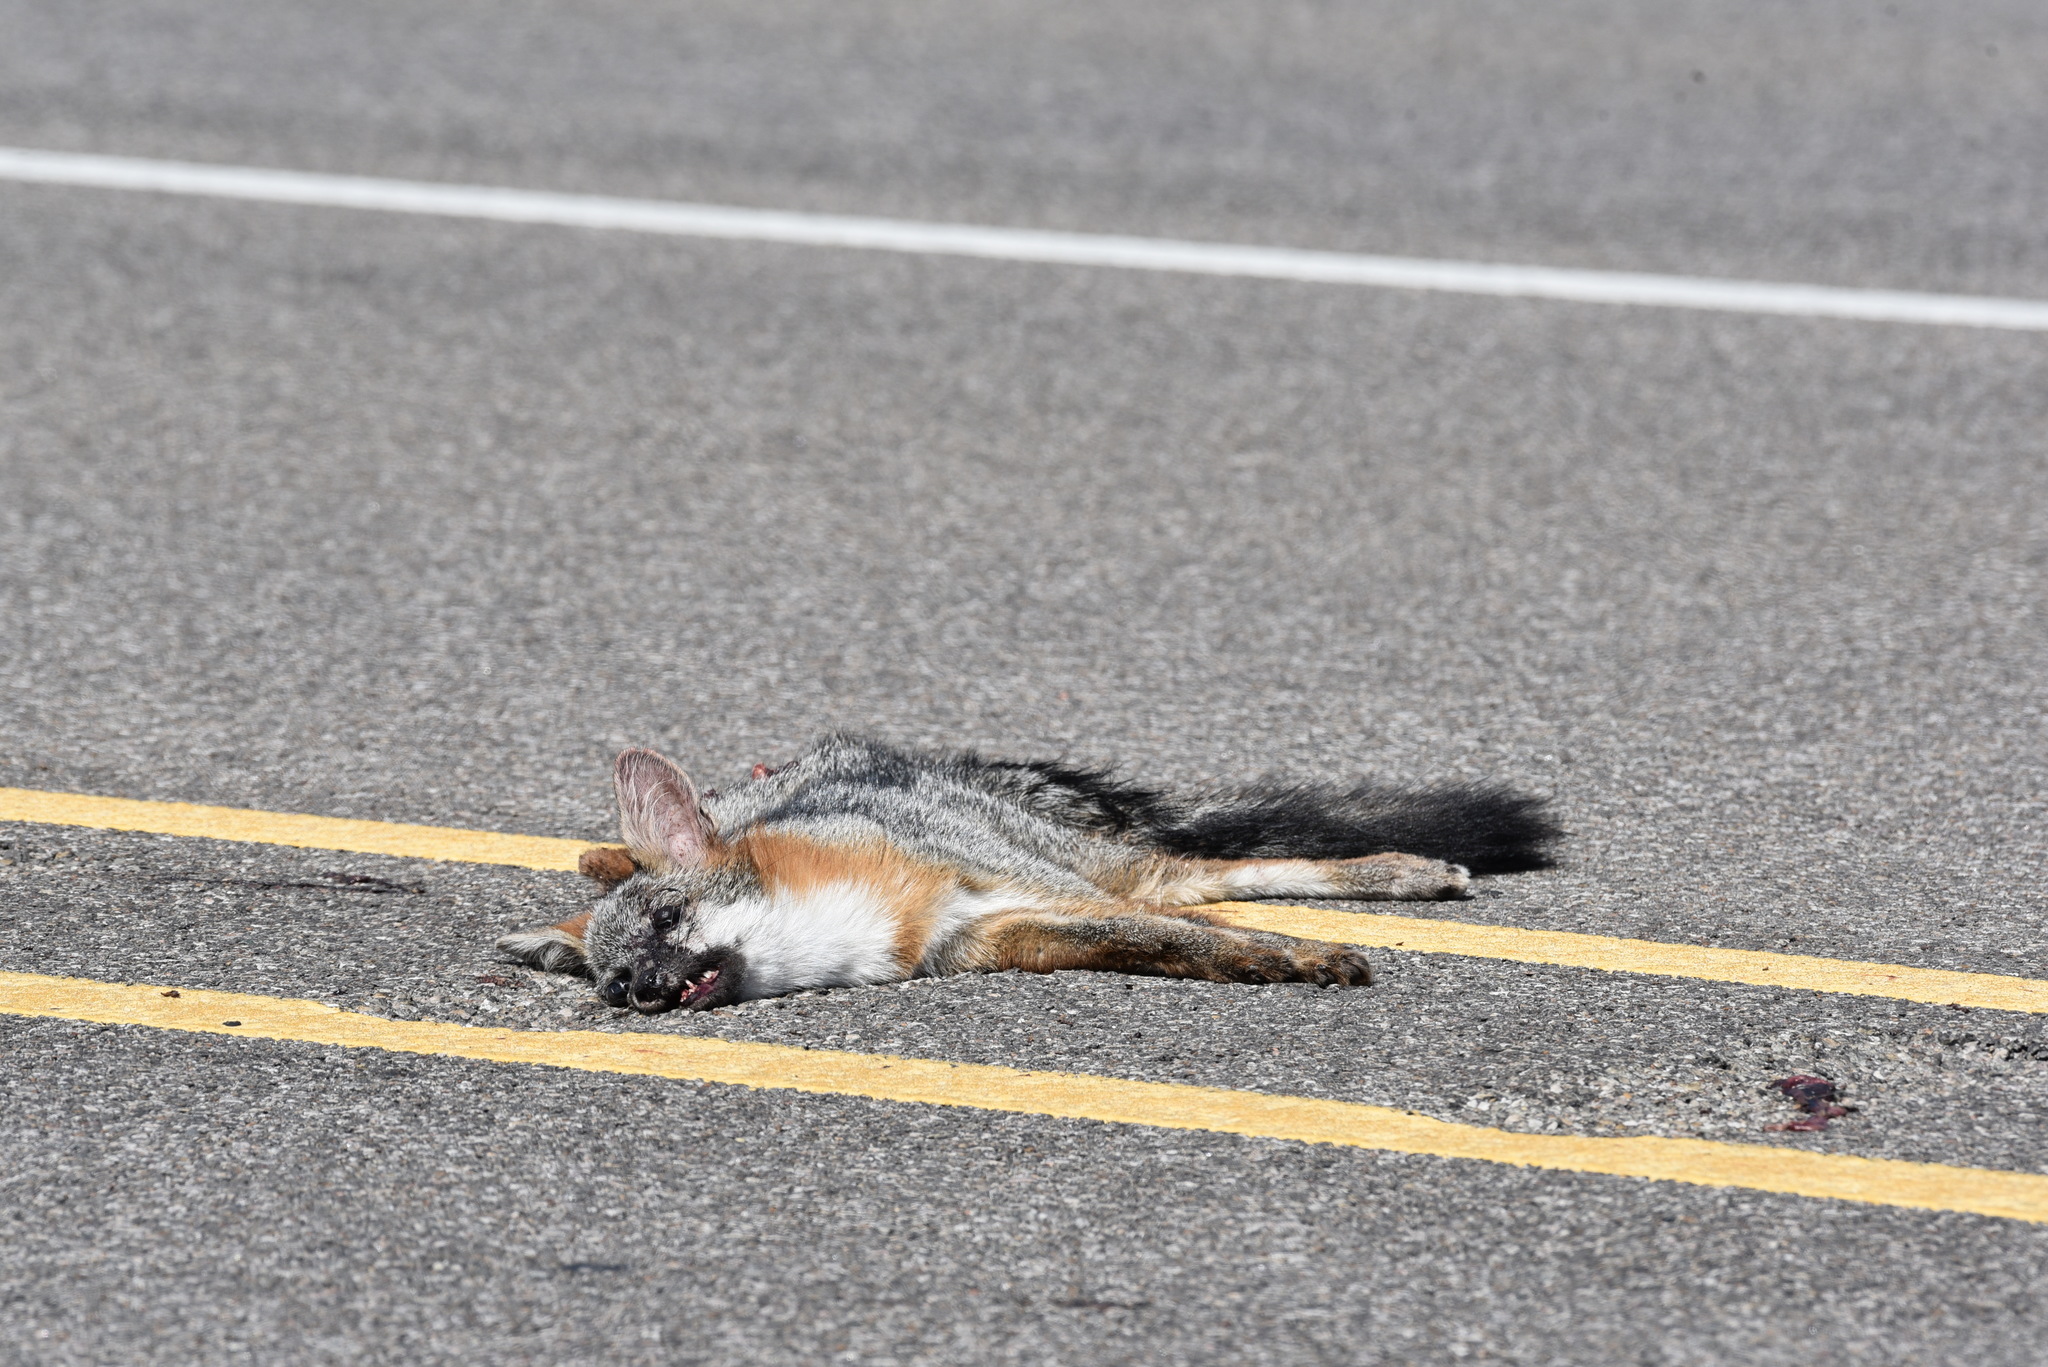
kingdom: Animalia
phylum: Chordata
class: Mammalia
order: Carnivora
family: Canidae
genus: Urocyon
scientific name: Urocyon cinereoargenteus
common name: Gray fox
